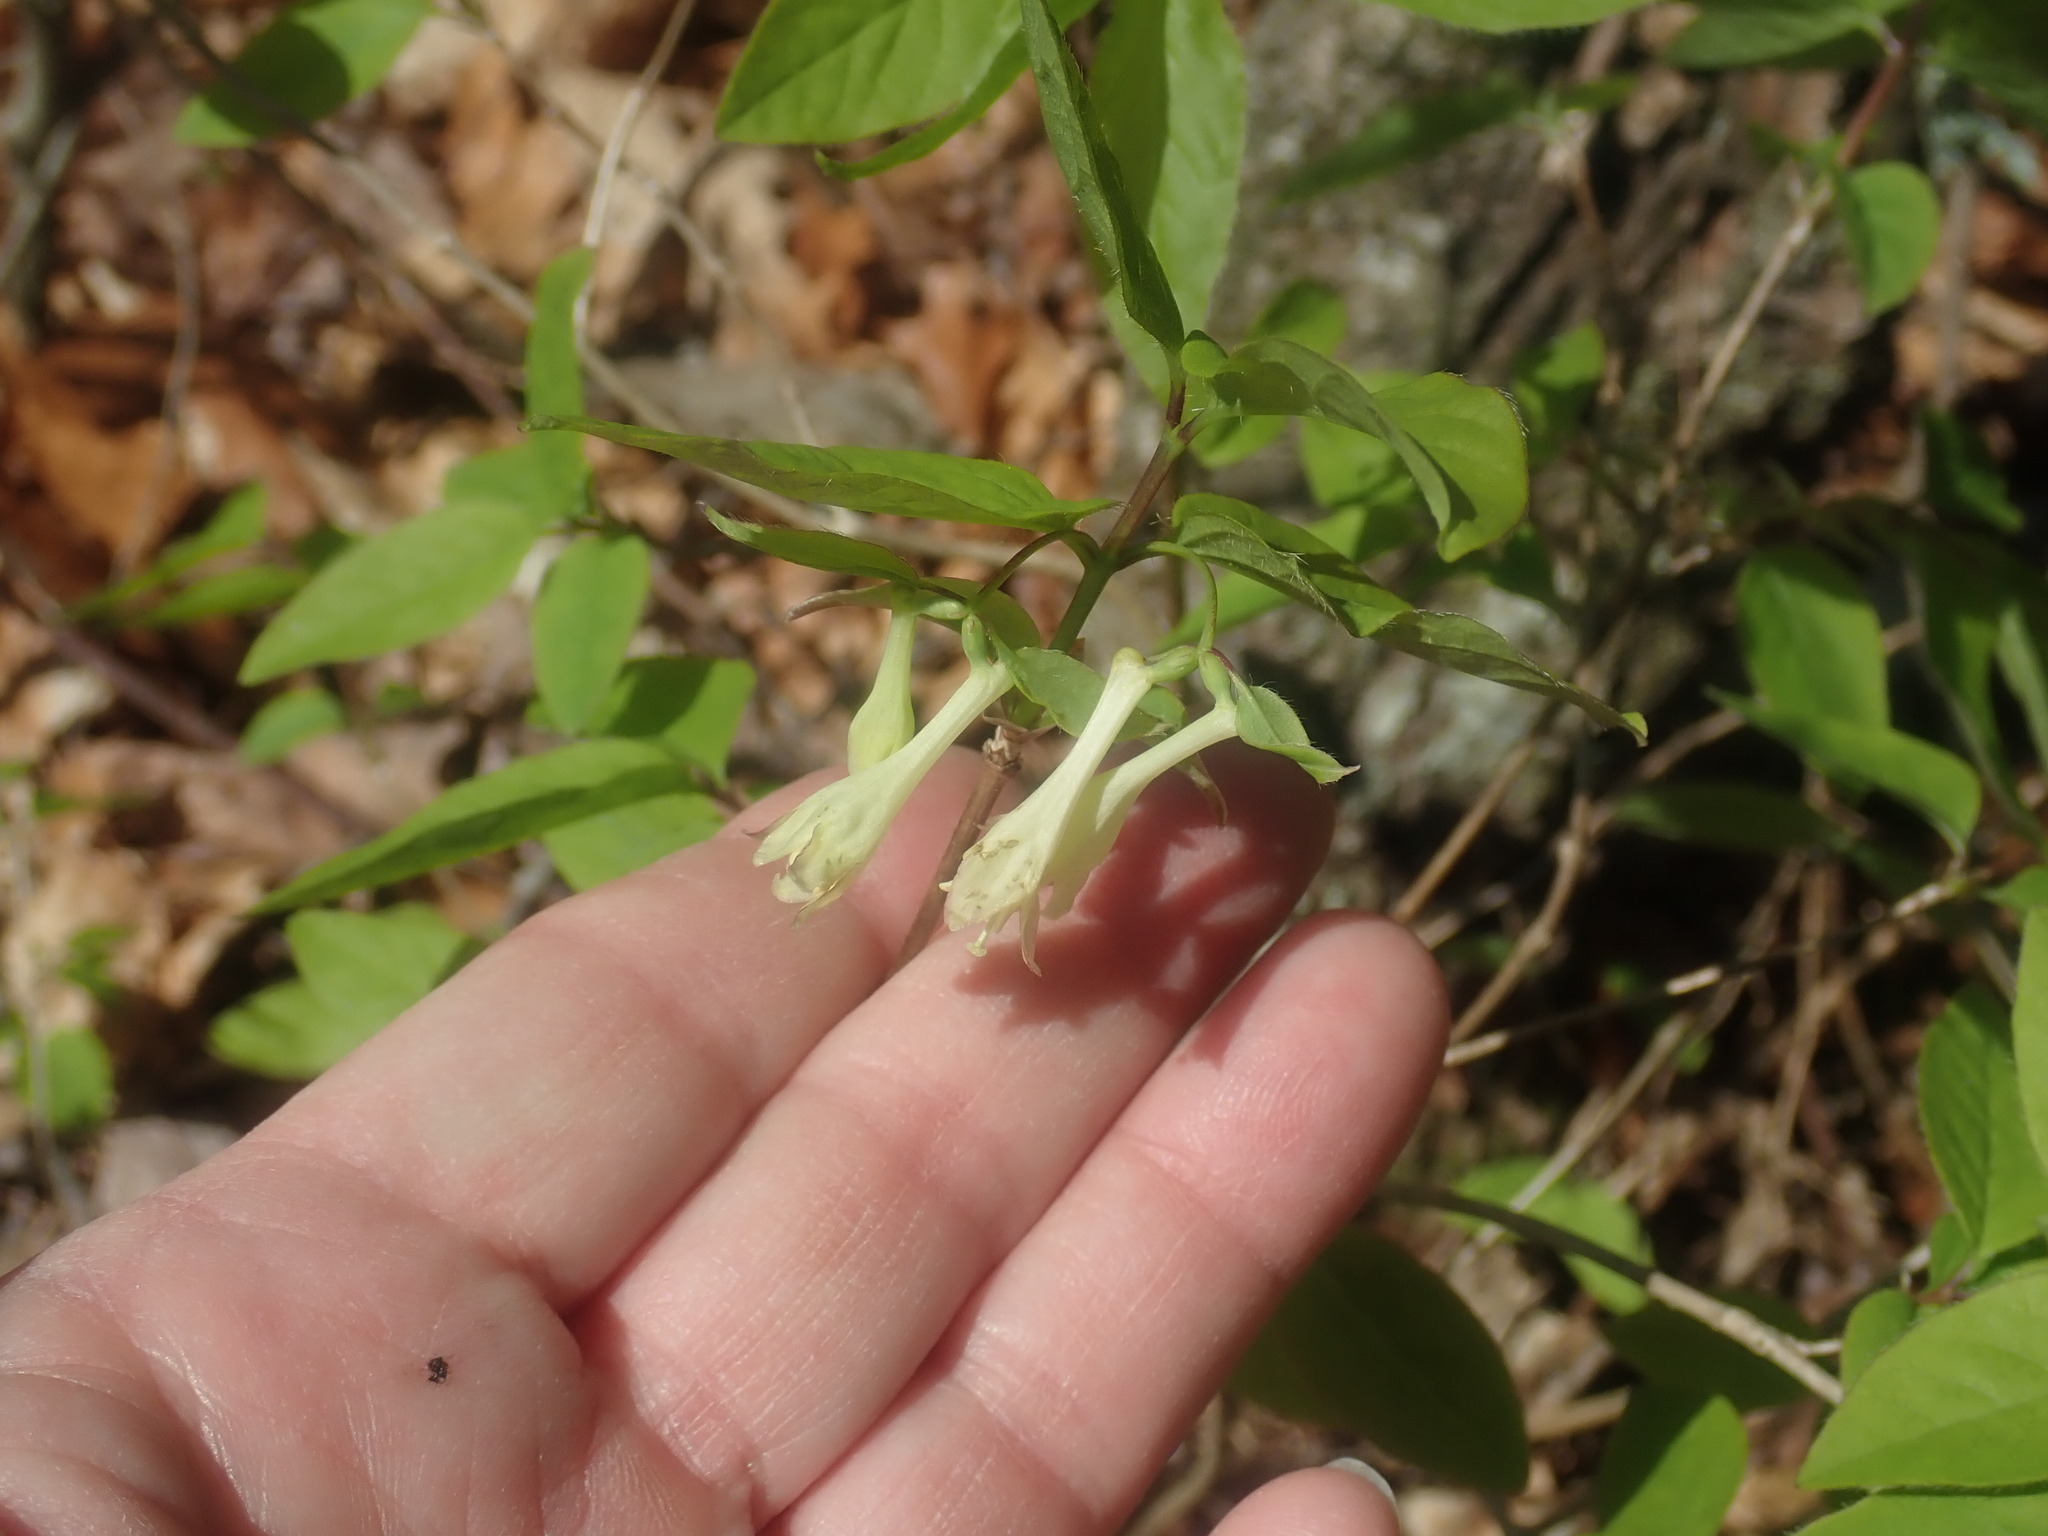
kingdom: Plantae
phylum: Tracheophyta
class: Magnoliopsida
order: Dipsacales
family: Caprifoliaceae
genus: Lonicera
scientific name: Lonicera canadensis
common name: American fly-honeysuckle
